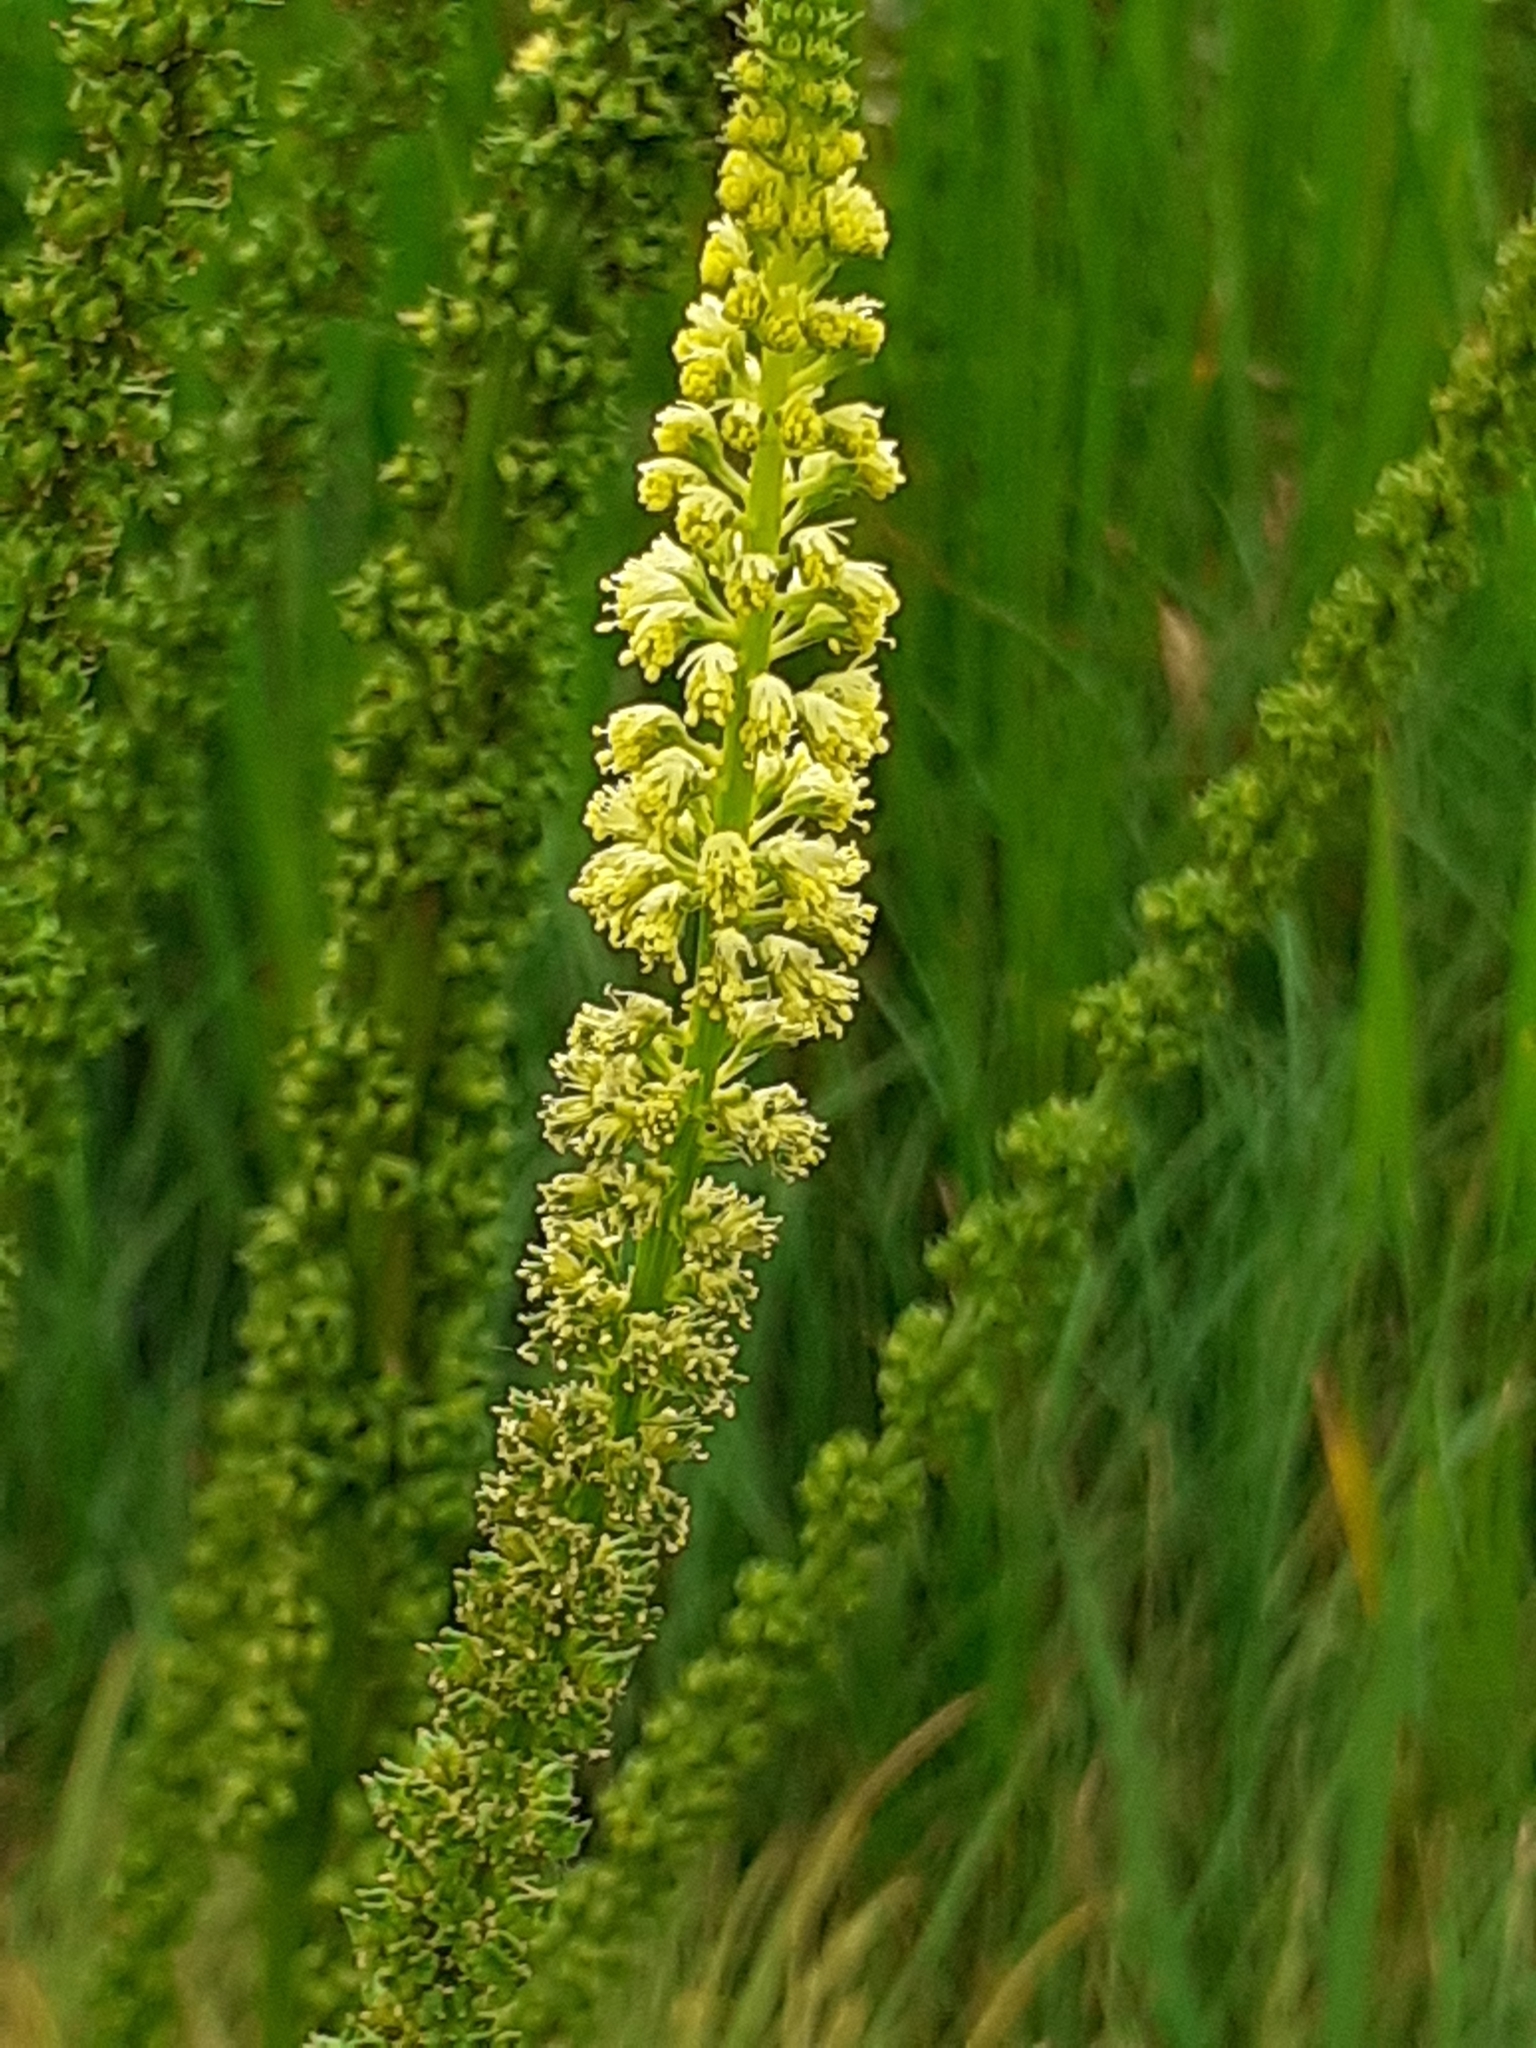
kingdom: Plantae
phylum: Tracheophyta
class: Magnoliopsida
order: Brassicales
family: Resedaceae
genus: Reseda
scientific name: Reseda luteola
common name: Weld
